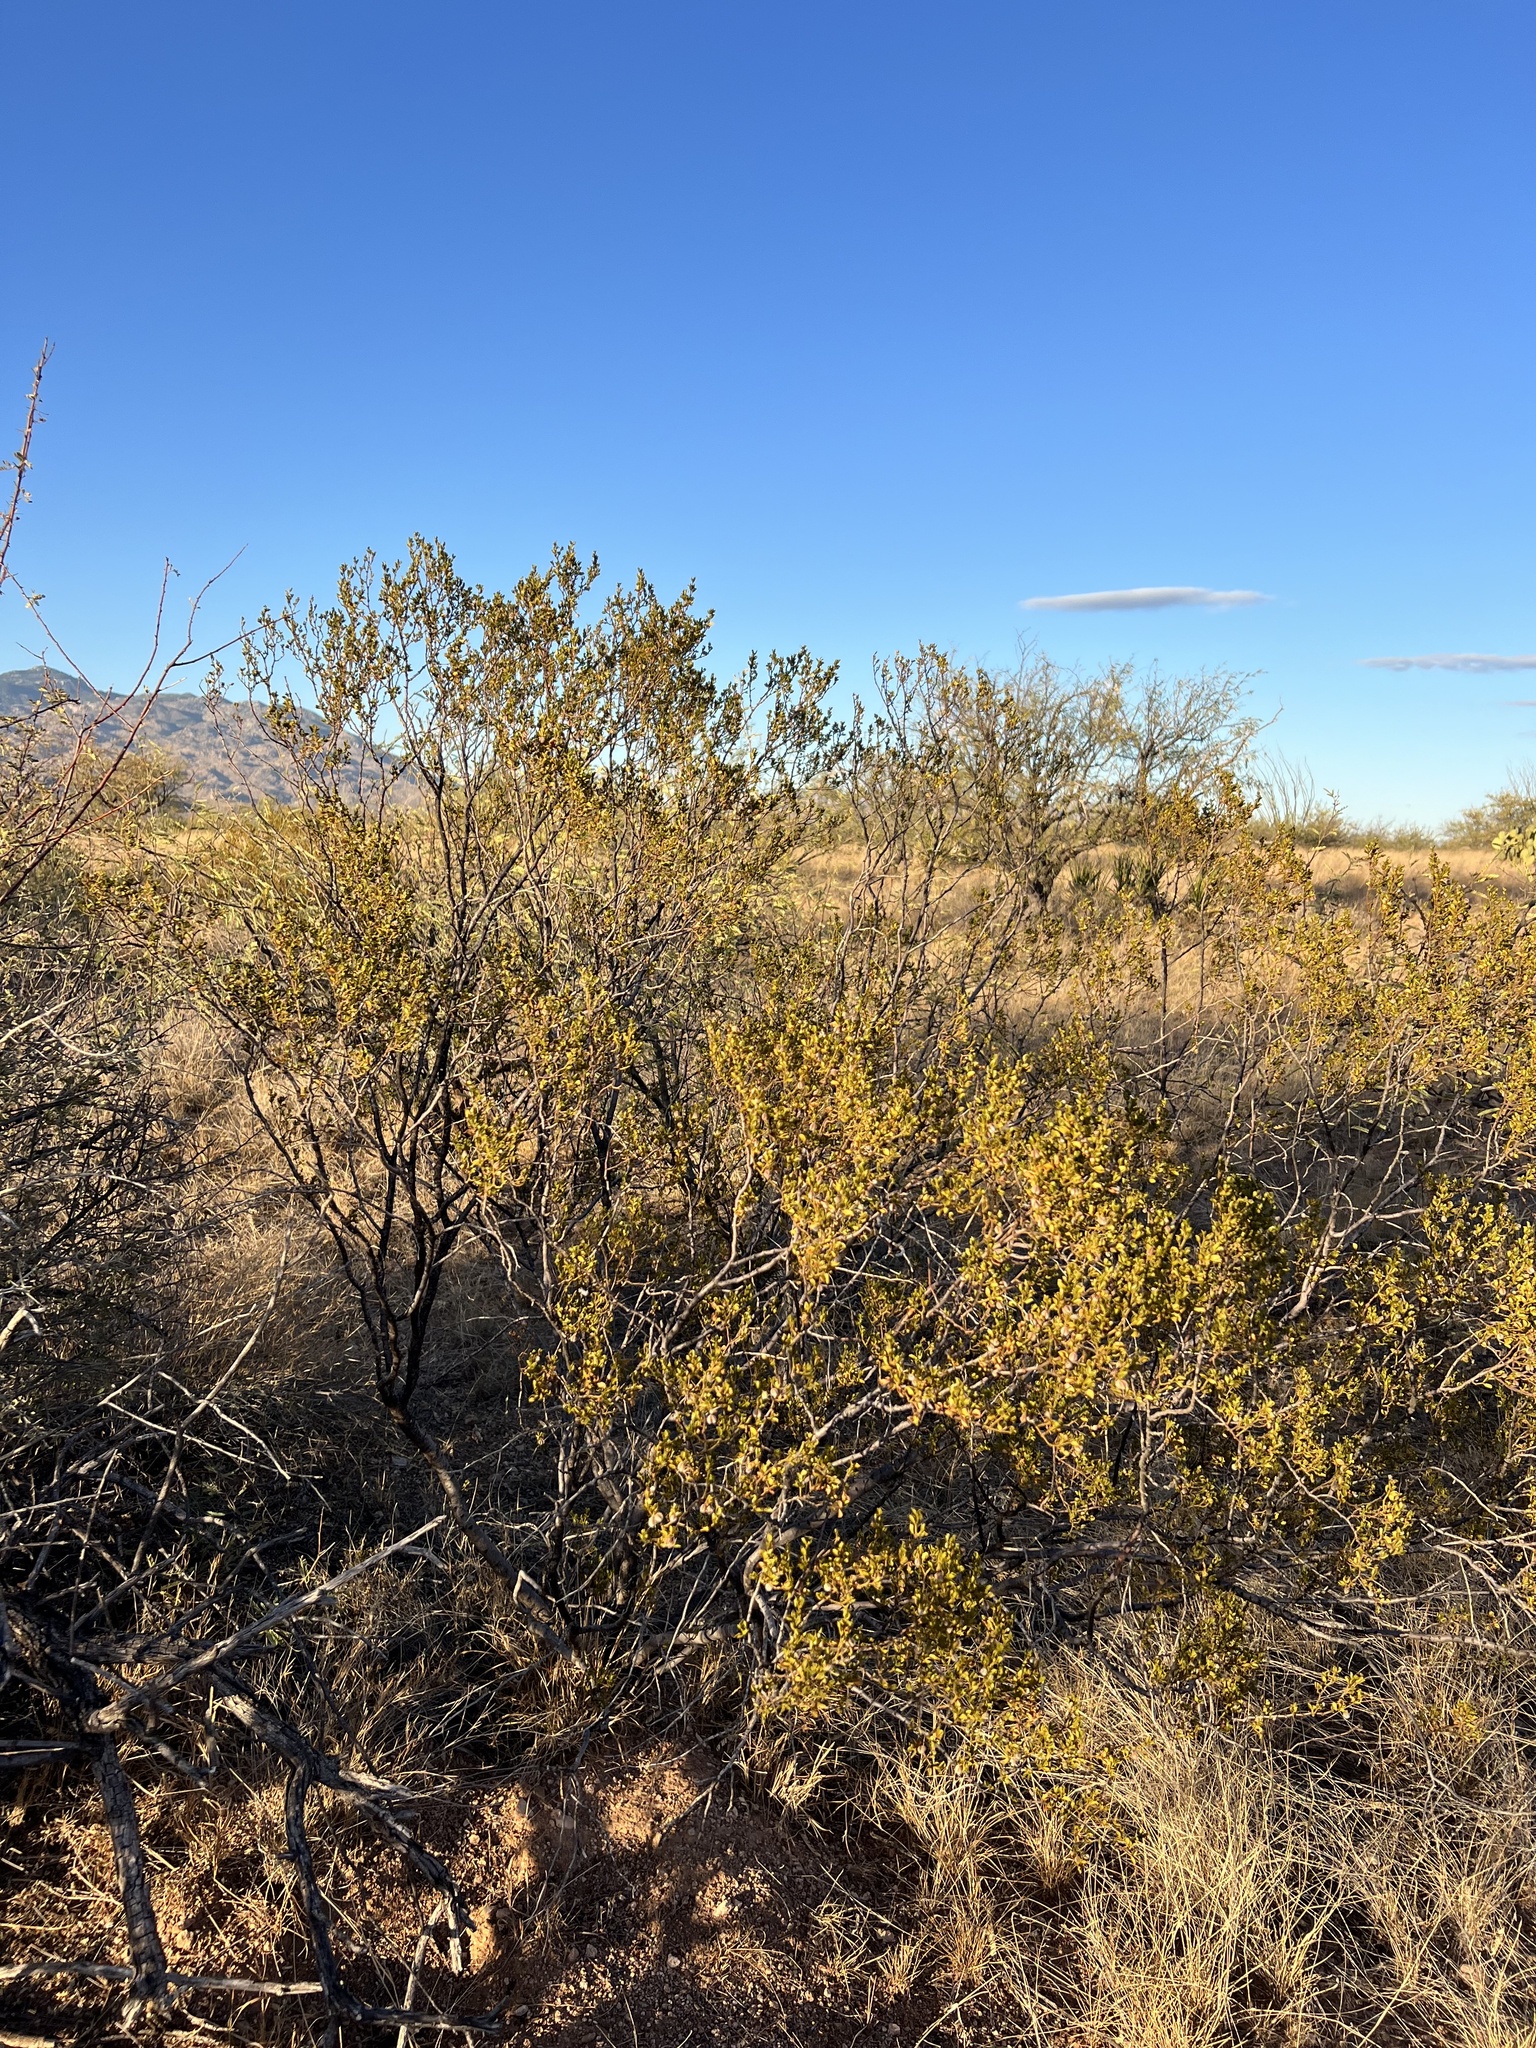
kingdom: Plantae
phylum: Tracheophyta
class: Magnoliopsida
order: Zygophyllales
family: Zygophyllaceae
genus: Larrea
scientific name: Larrea tridentata
